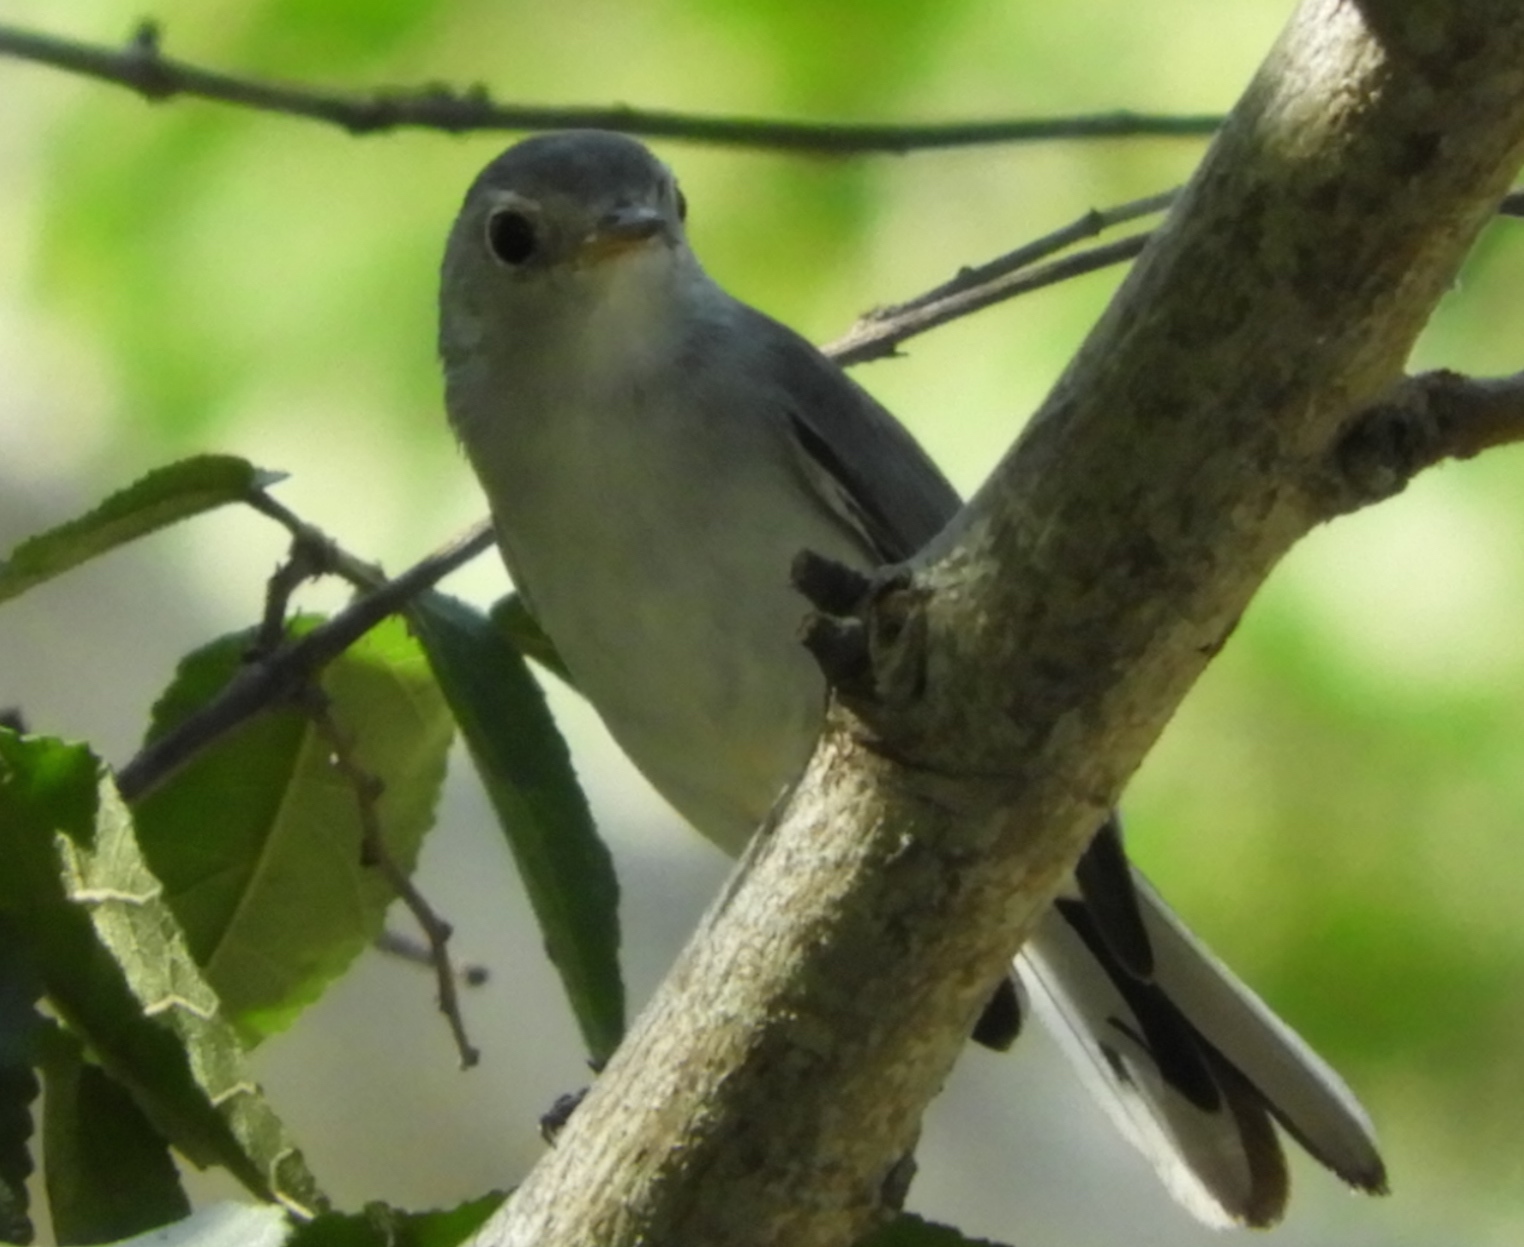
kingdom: Animalia
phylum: Chordata
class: Aves
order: Passeriformes
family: Polioptilidae
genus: Polioptila
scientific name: Polioptila nigriceps
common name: Black-capped gnatcatcher
